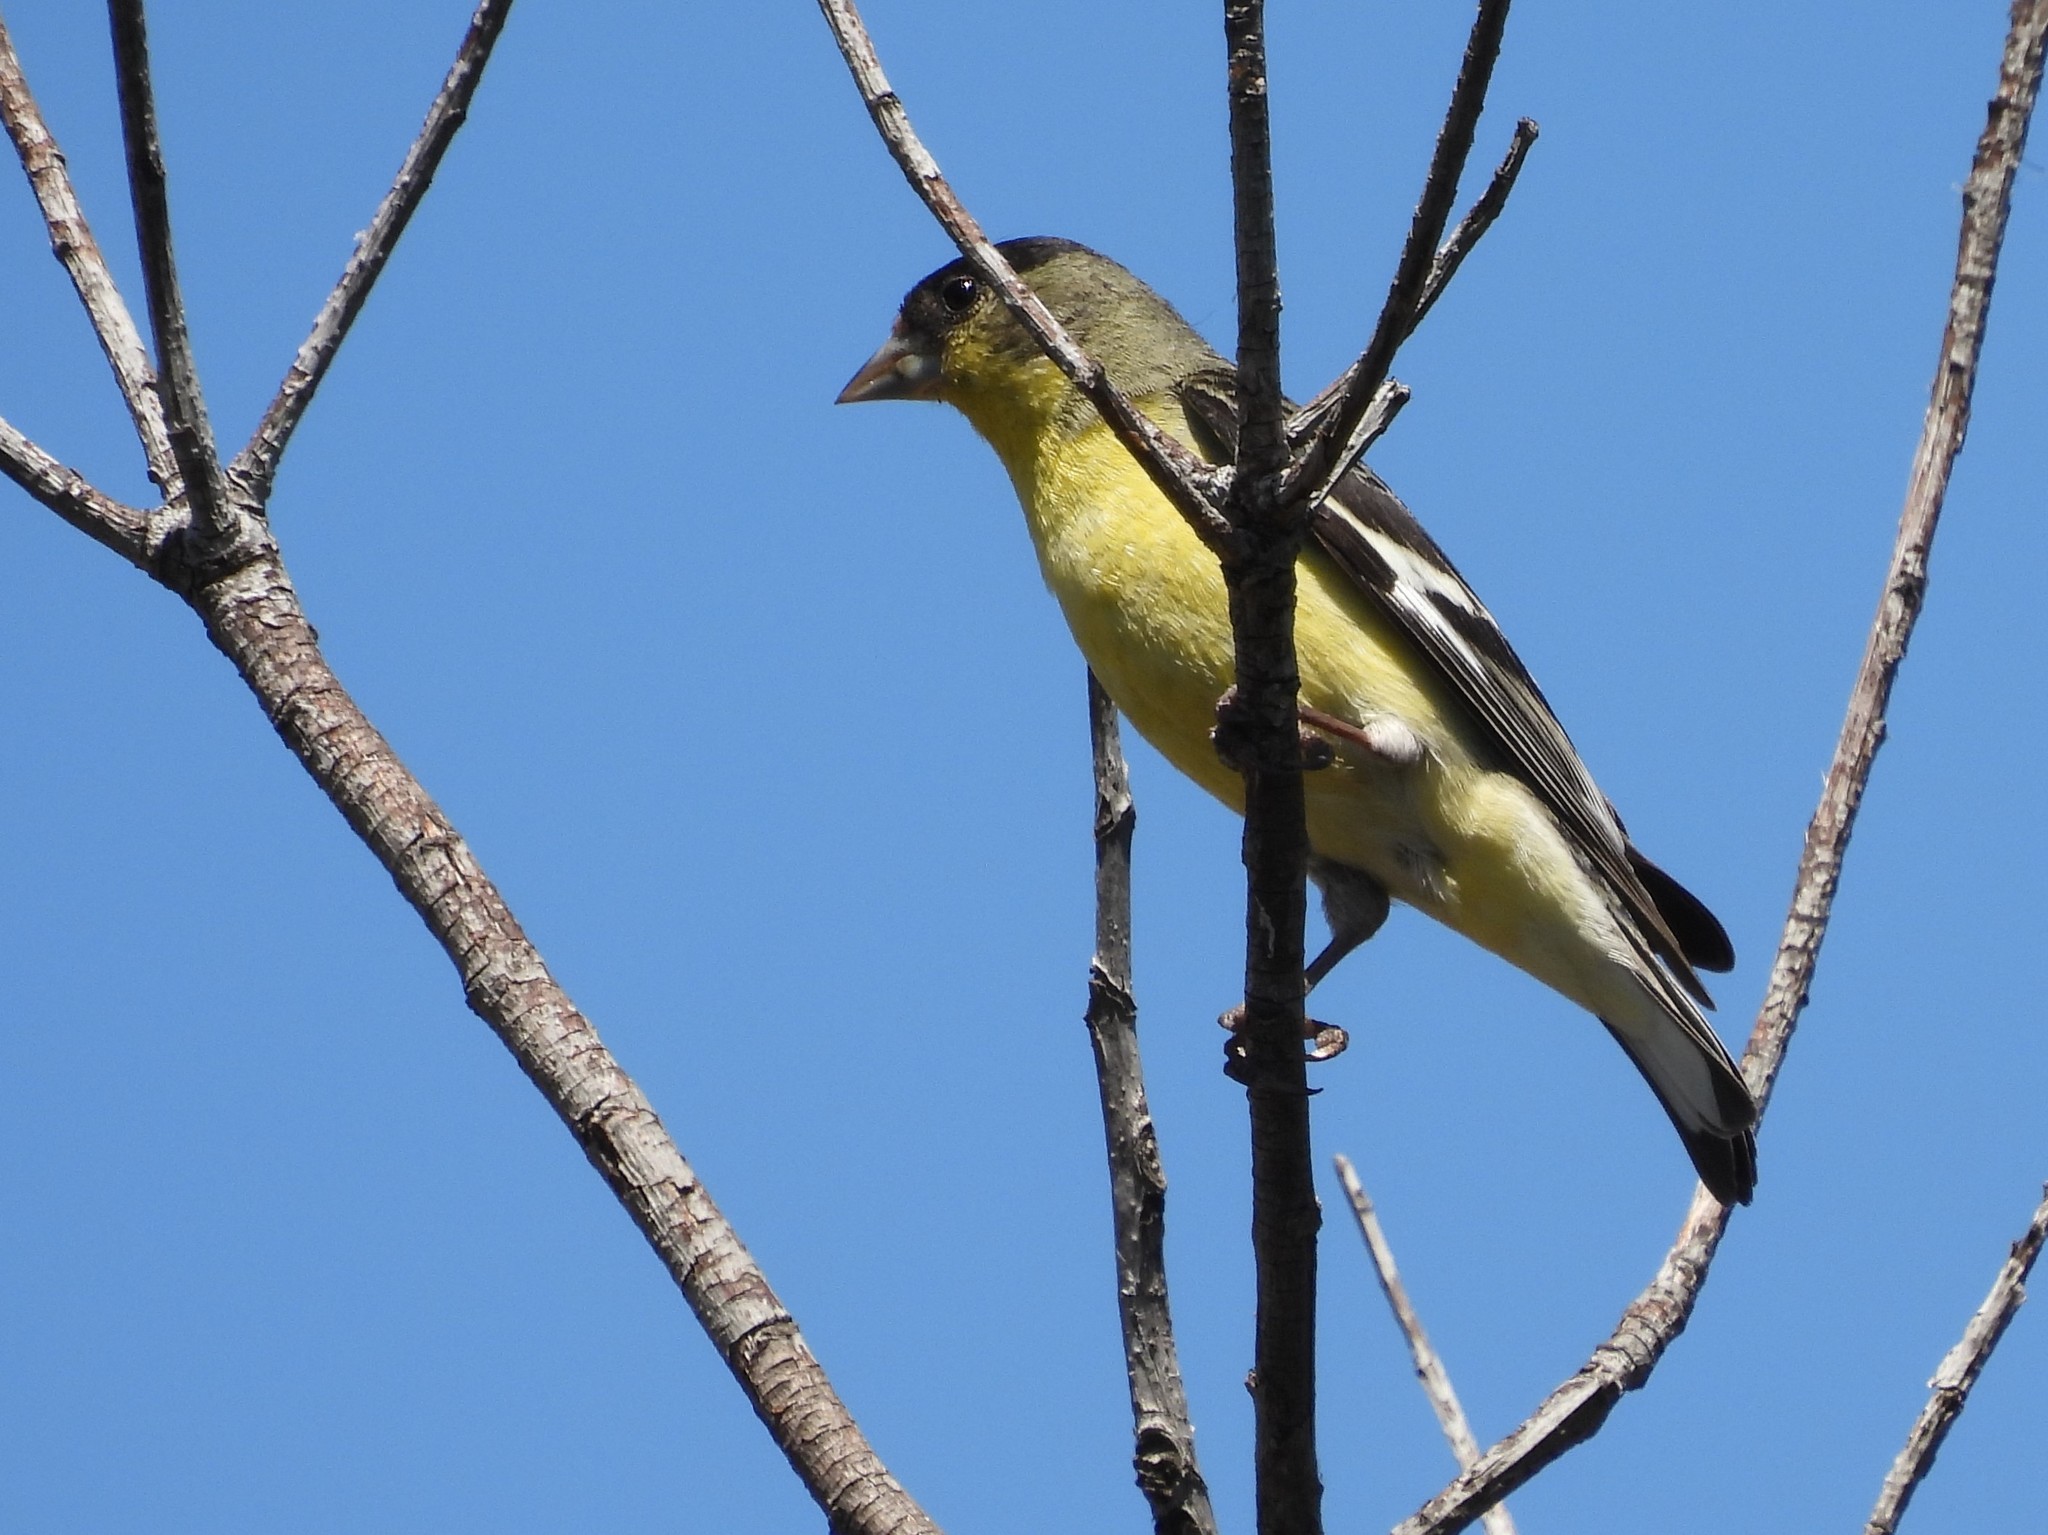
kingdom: Animalia
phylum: Chordata
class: Aves
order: Passeriformes
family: Fringillidae
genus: Spinus
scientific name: Spinus psaltria
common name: Lesser goldfinch
